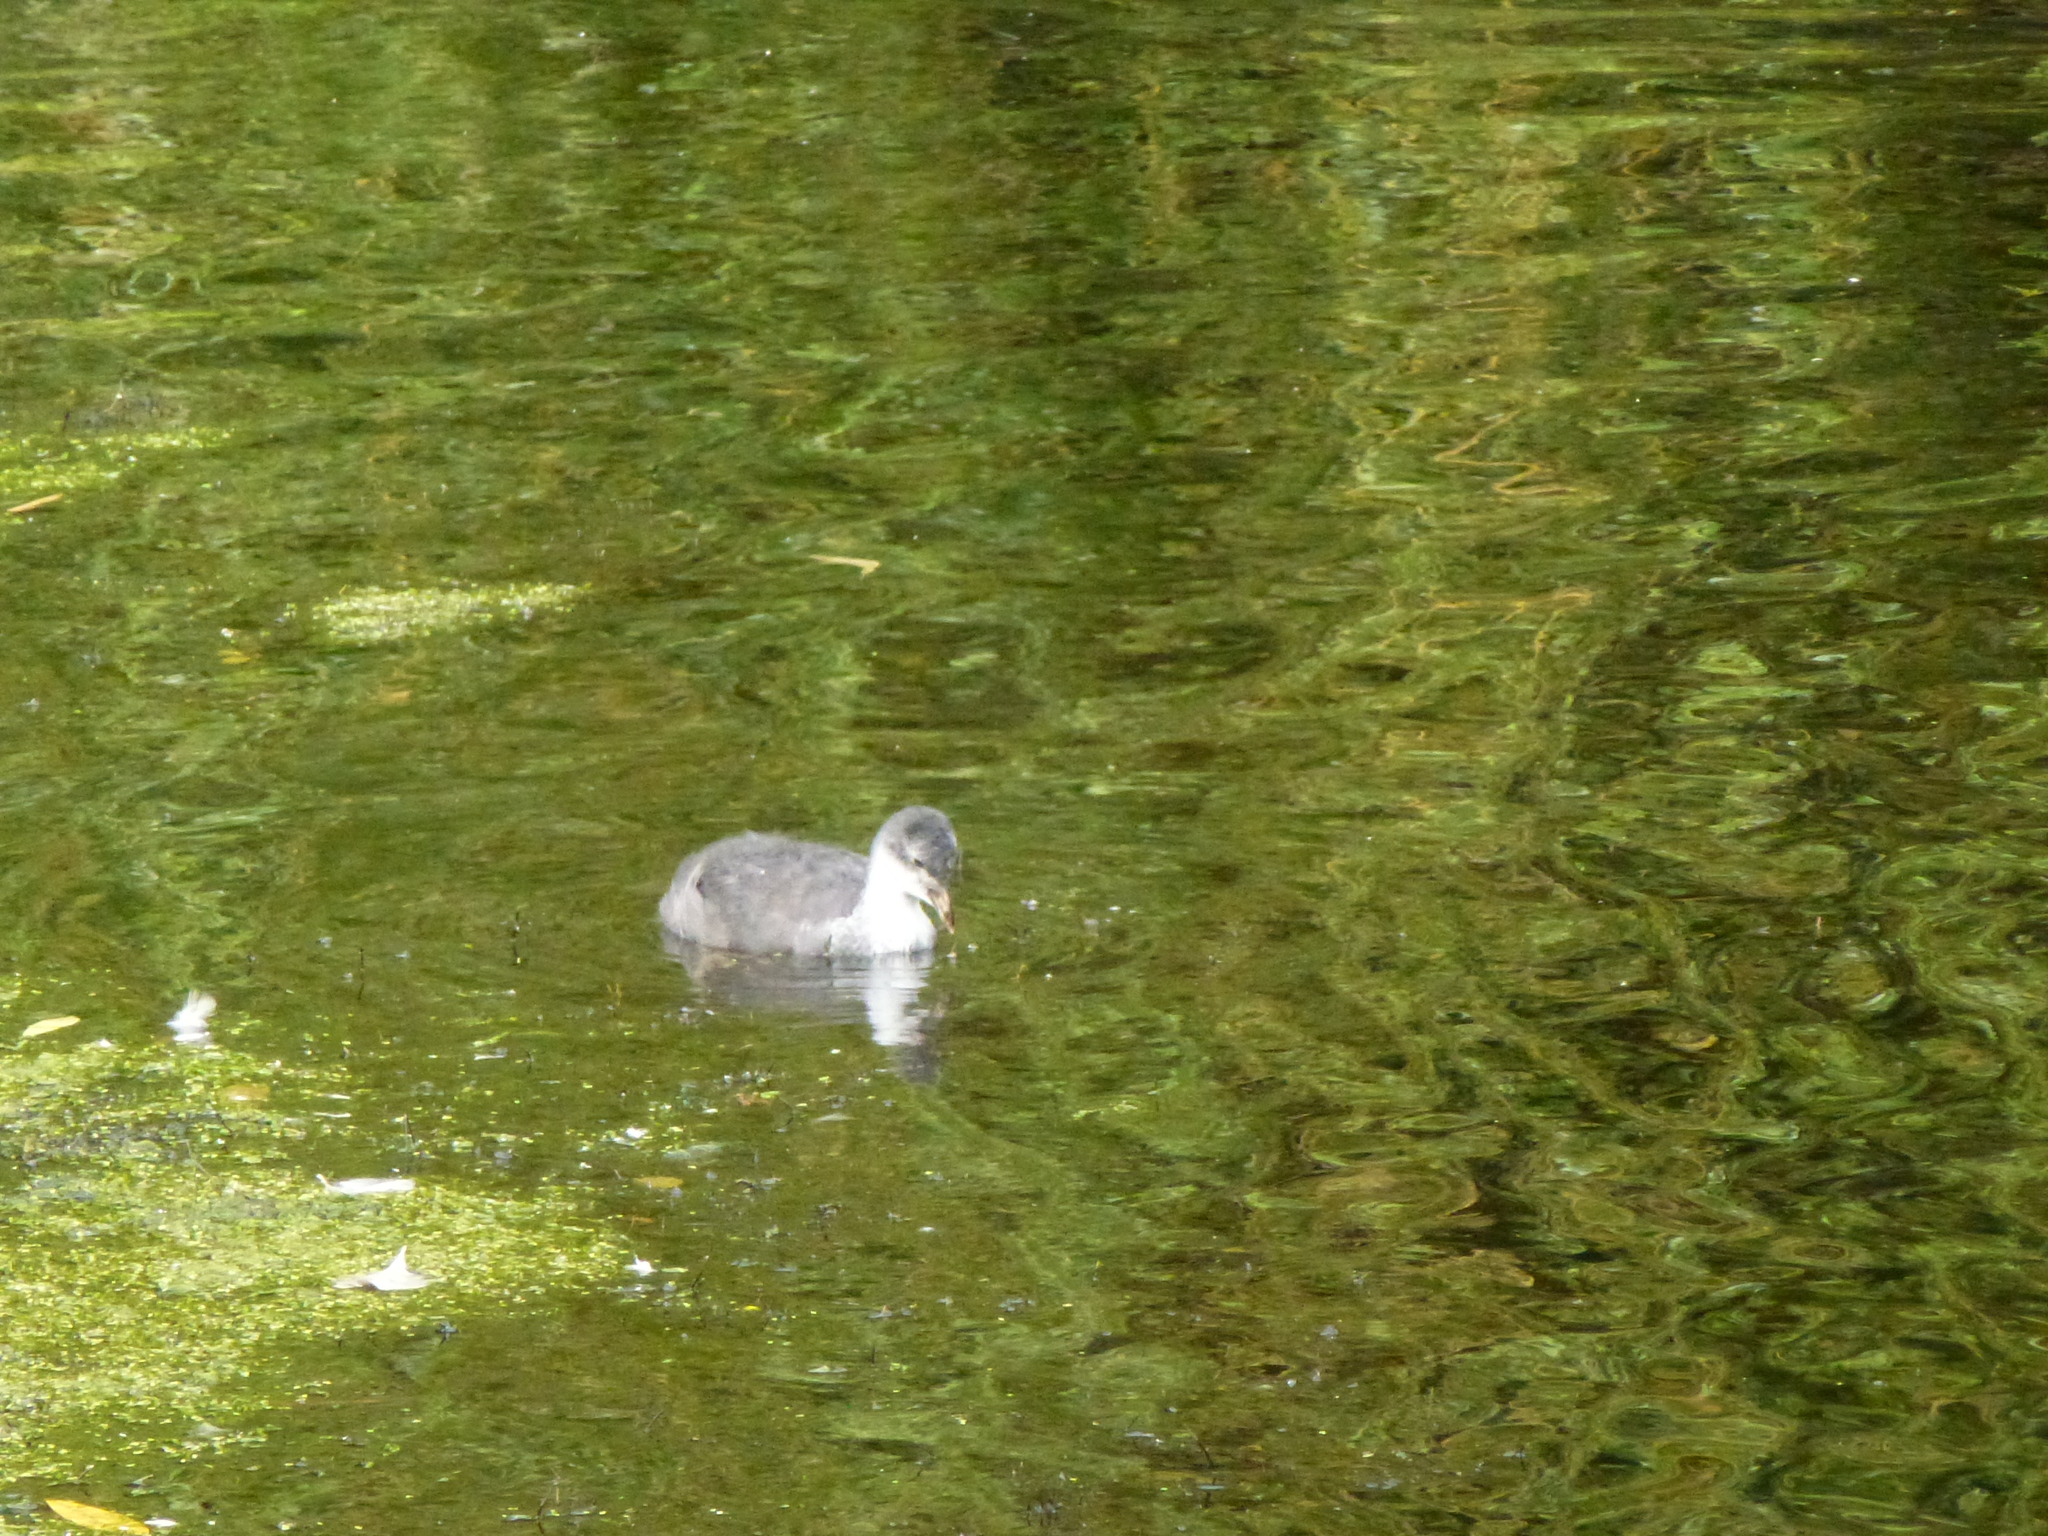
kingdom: Animalia
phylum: Chordata
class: Aves
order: Gruiformes
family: Rallidae
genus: Fulica
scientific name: Fulica atra
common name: Eurasian coot
